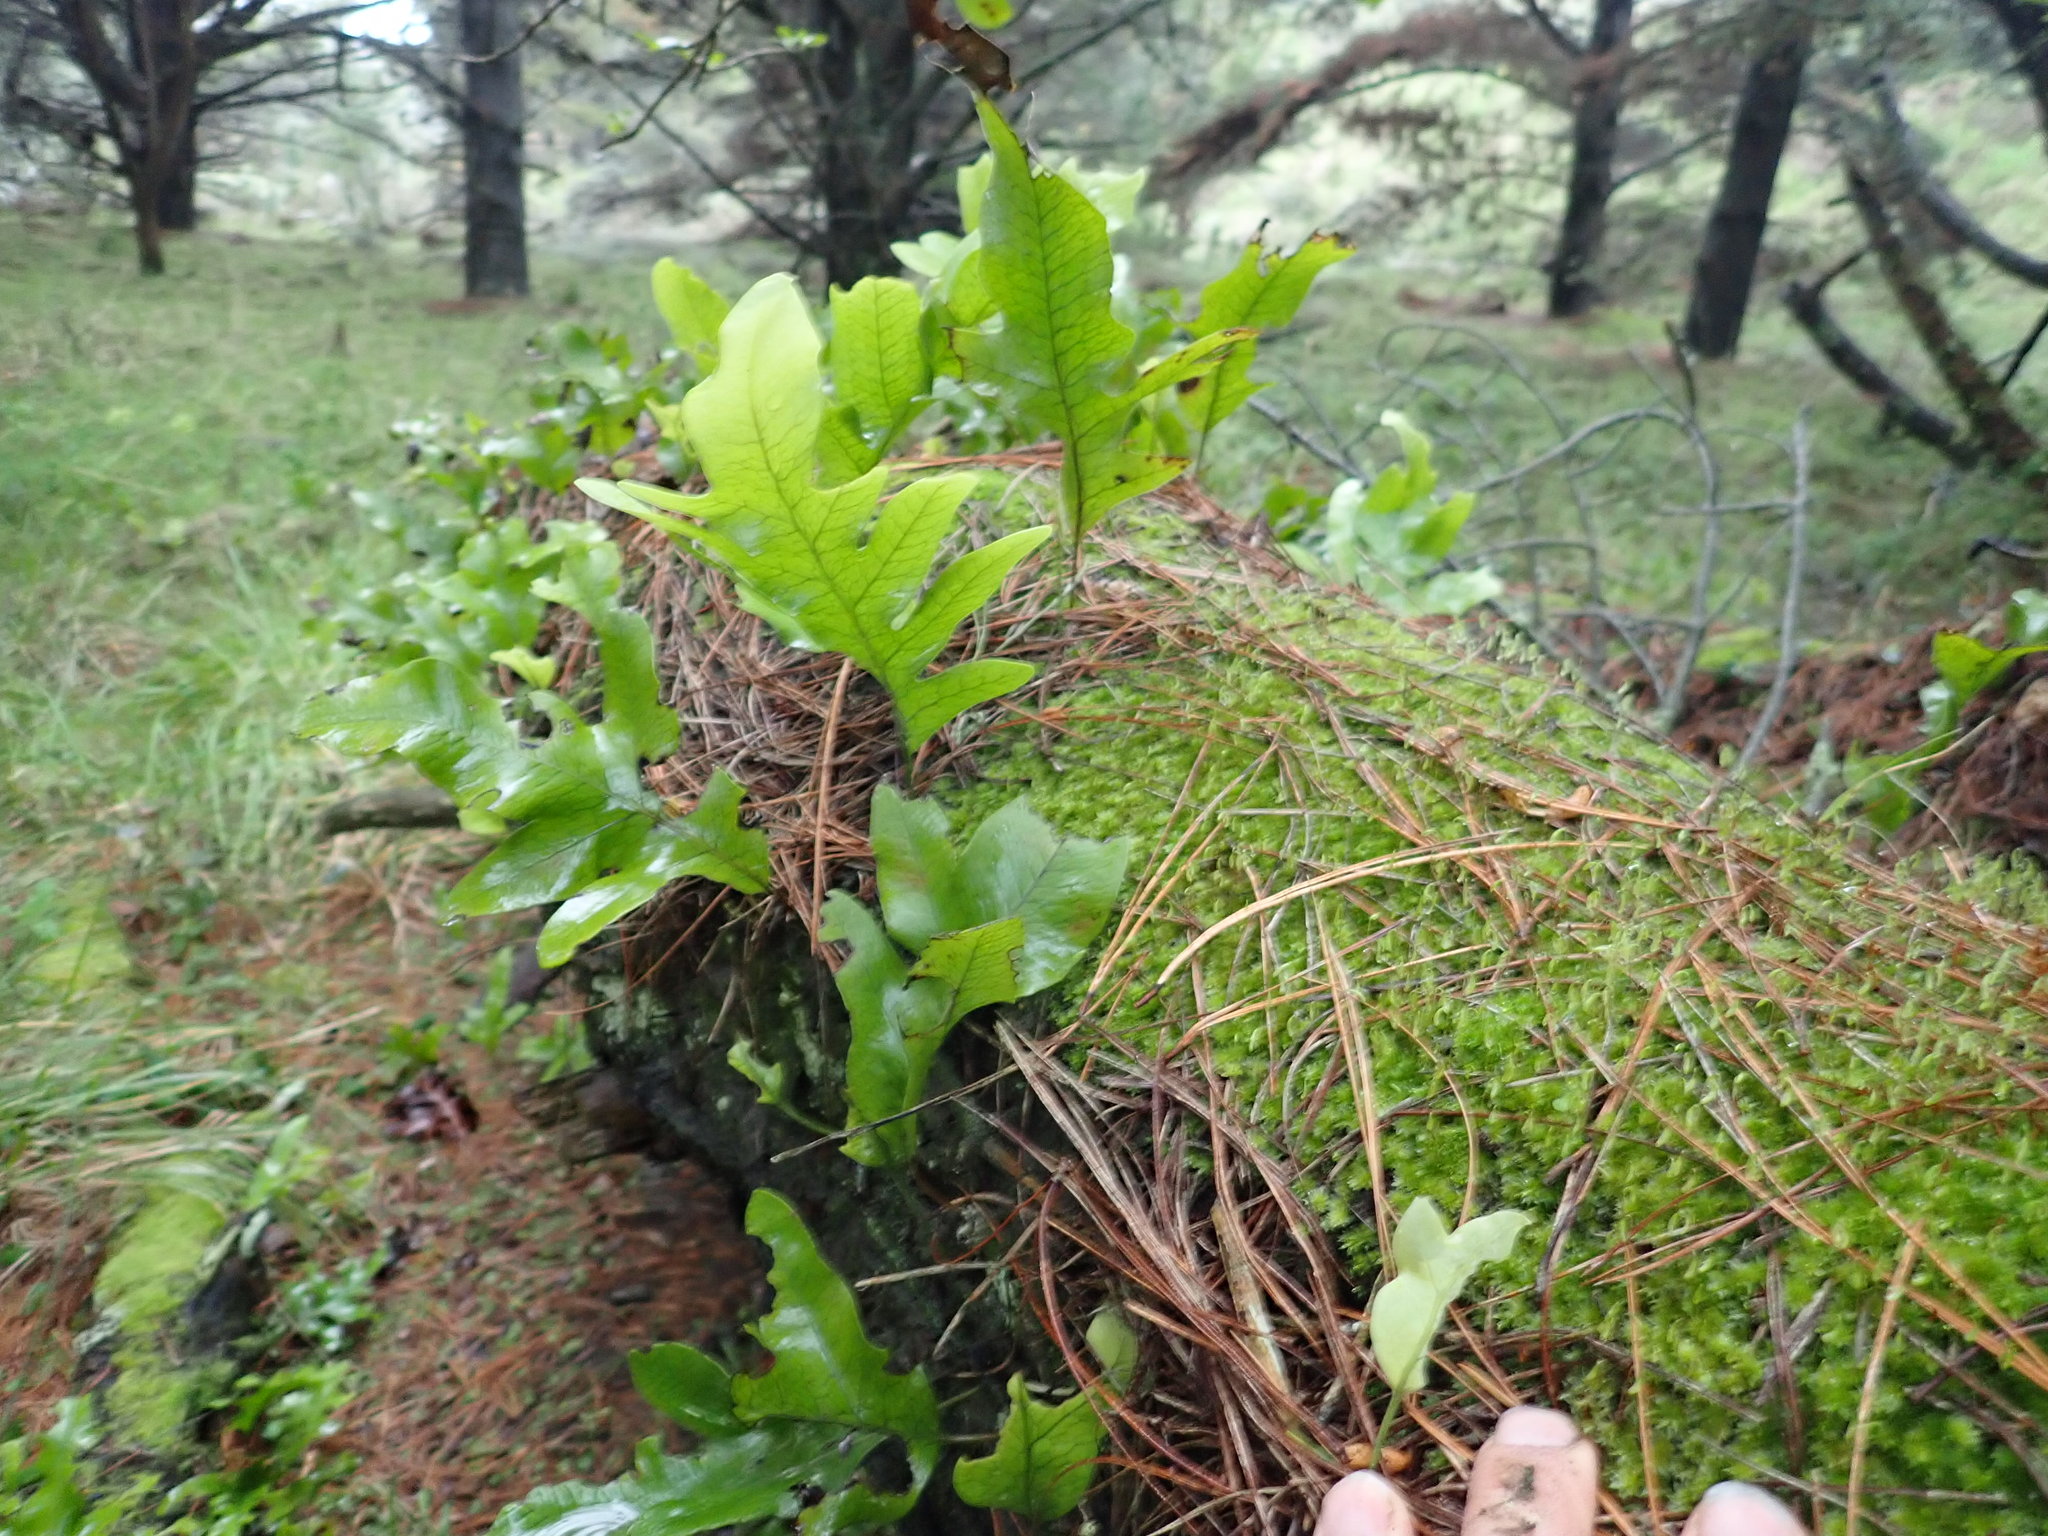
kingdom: Plantae
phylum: Tracheophyta
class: Polypodiopsida
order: Polypodiales
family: Polypodiaceae
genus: Lecanopteris
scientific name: Lecanopteris pustulata
